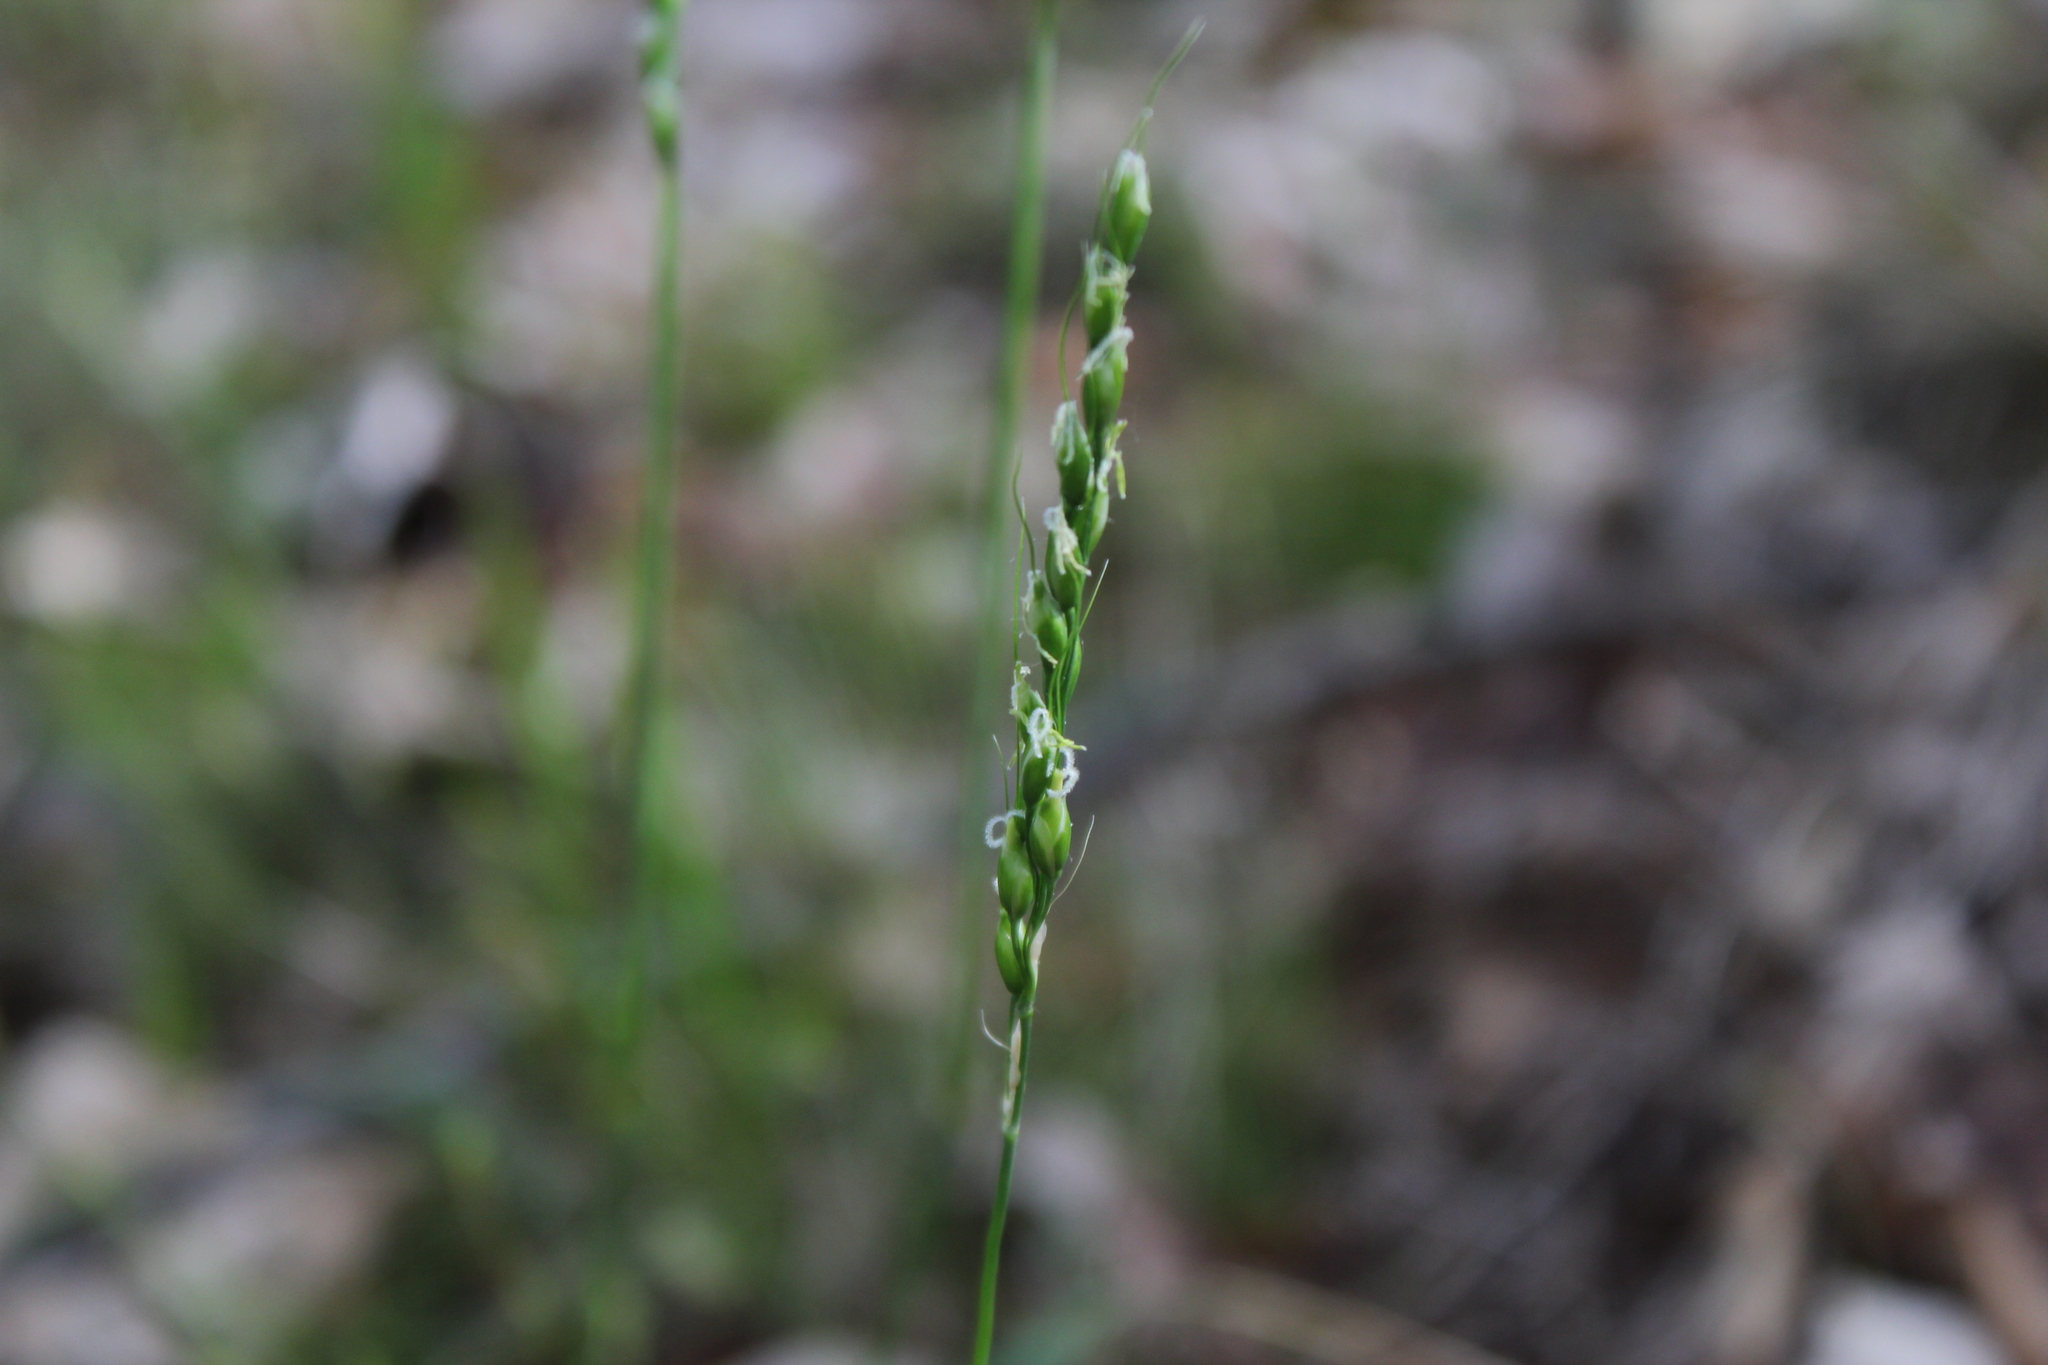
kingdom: Plantae
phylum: Tracheophyta
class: Liliopsida
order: Poales
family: Poaceae
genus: Oryzopsis
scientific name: Oryzopsis asperifolia
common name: Rough-leaved mountain rice
